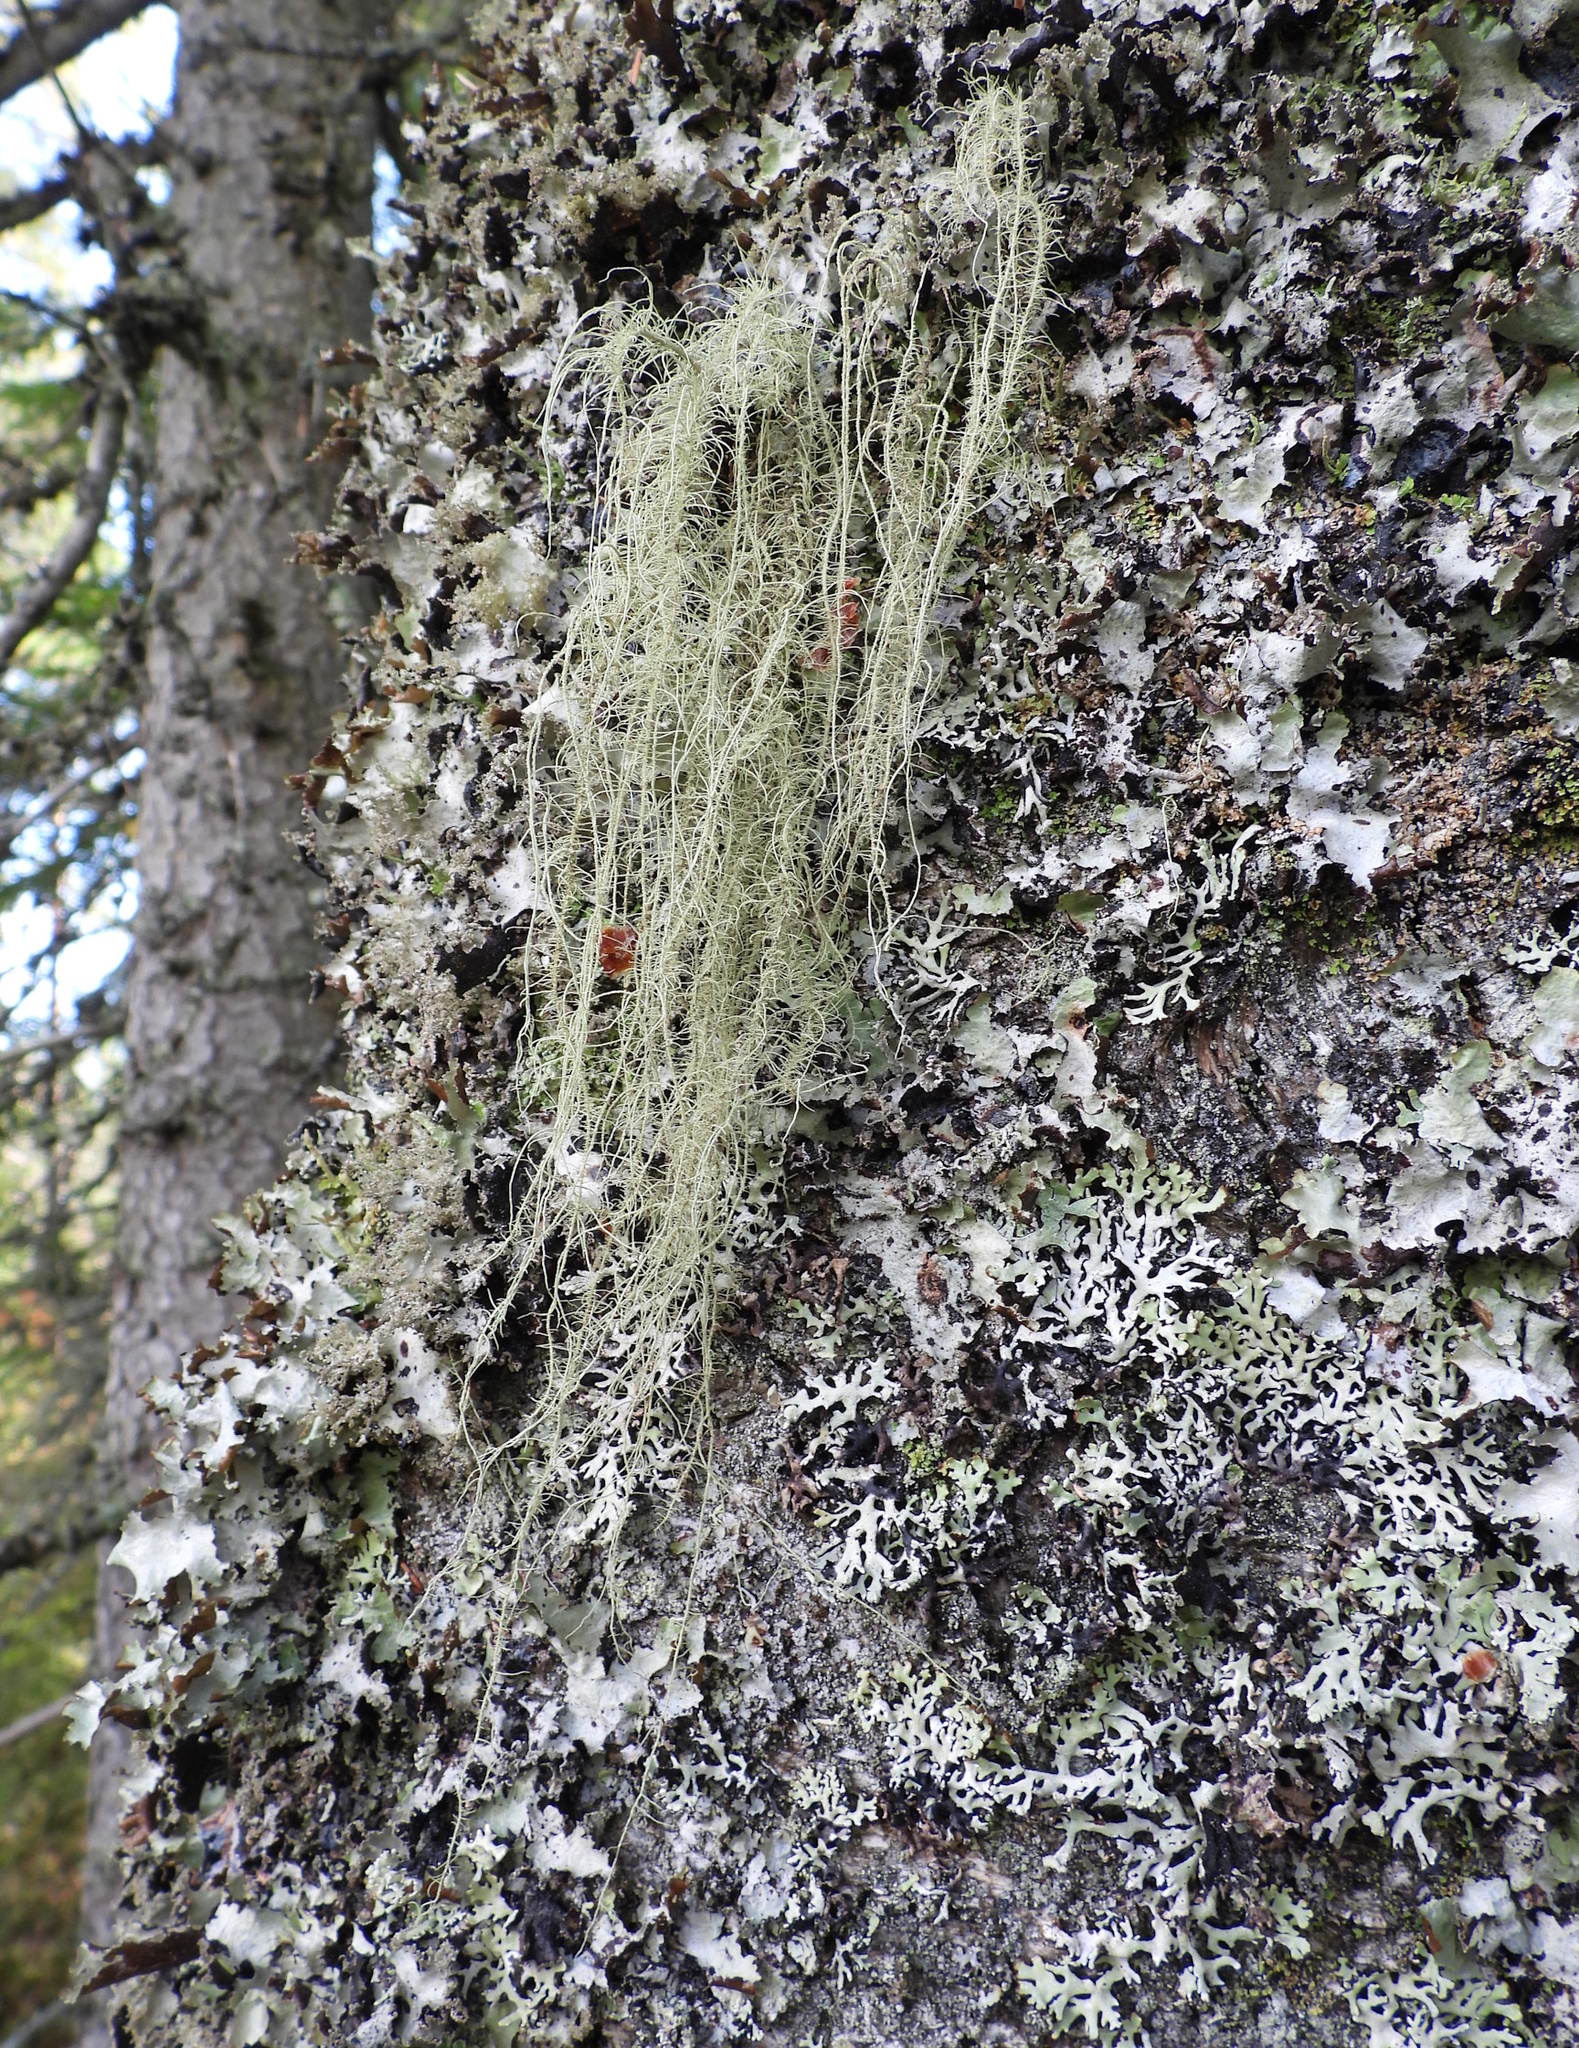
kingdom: Fungi
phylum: Ascomycota
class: Lecanoromycetes
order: Lecanorales
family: Parmeliaceae
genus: Usnea
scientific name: Usnea dasopoga
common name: Fishbone beard lichen
